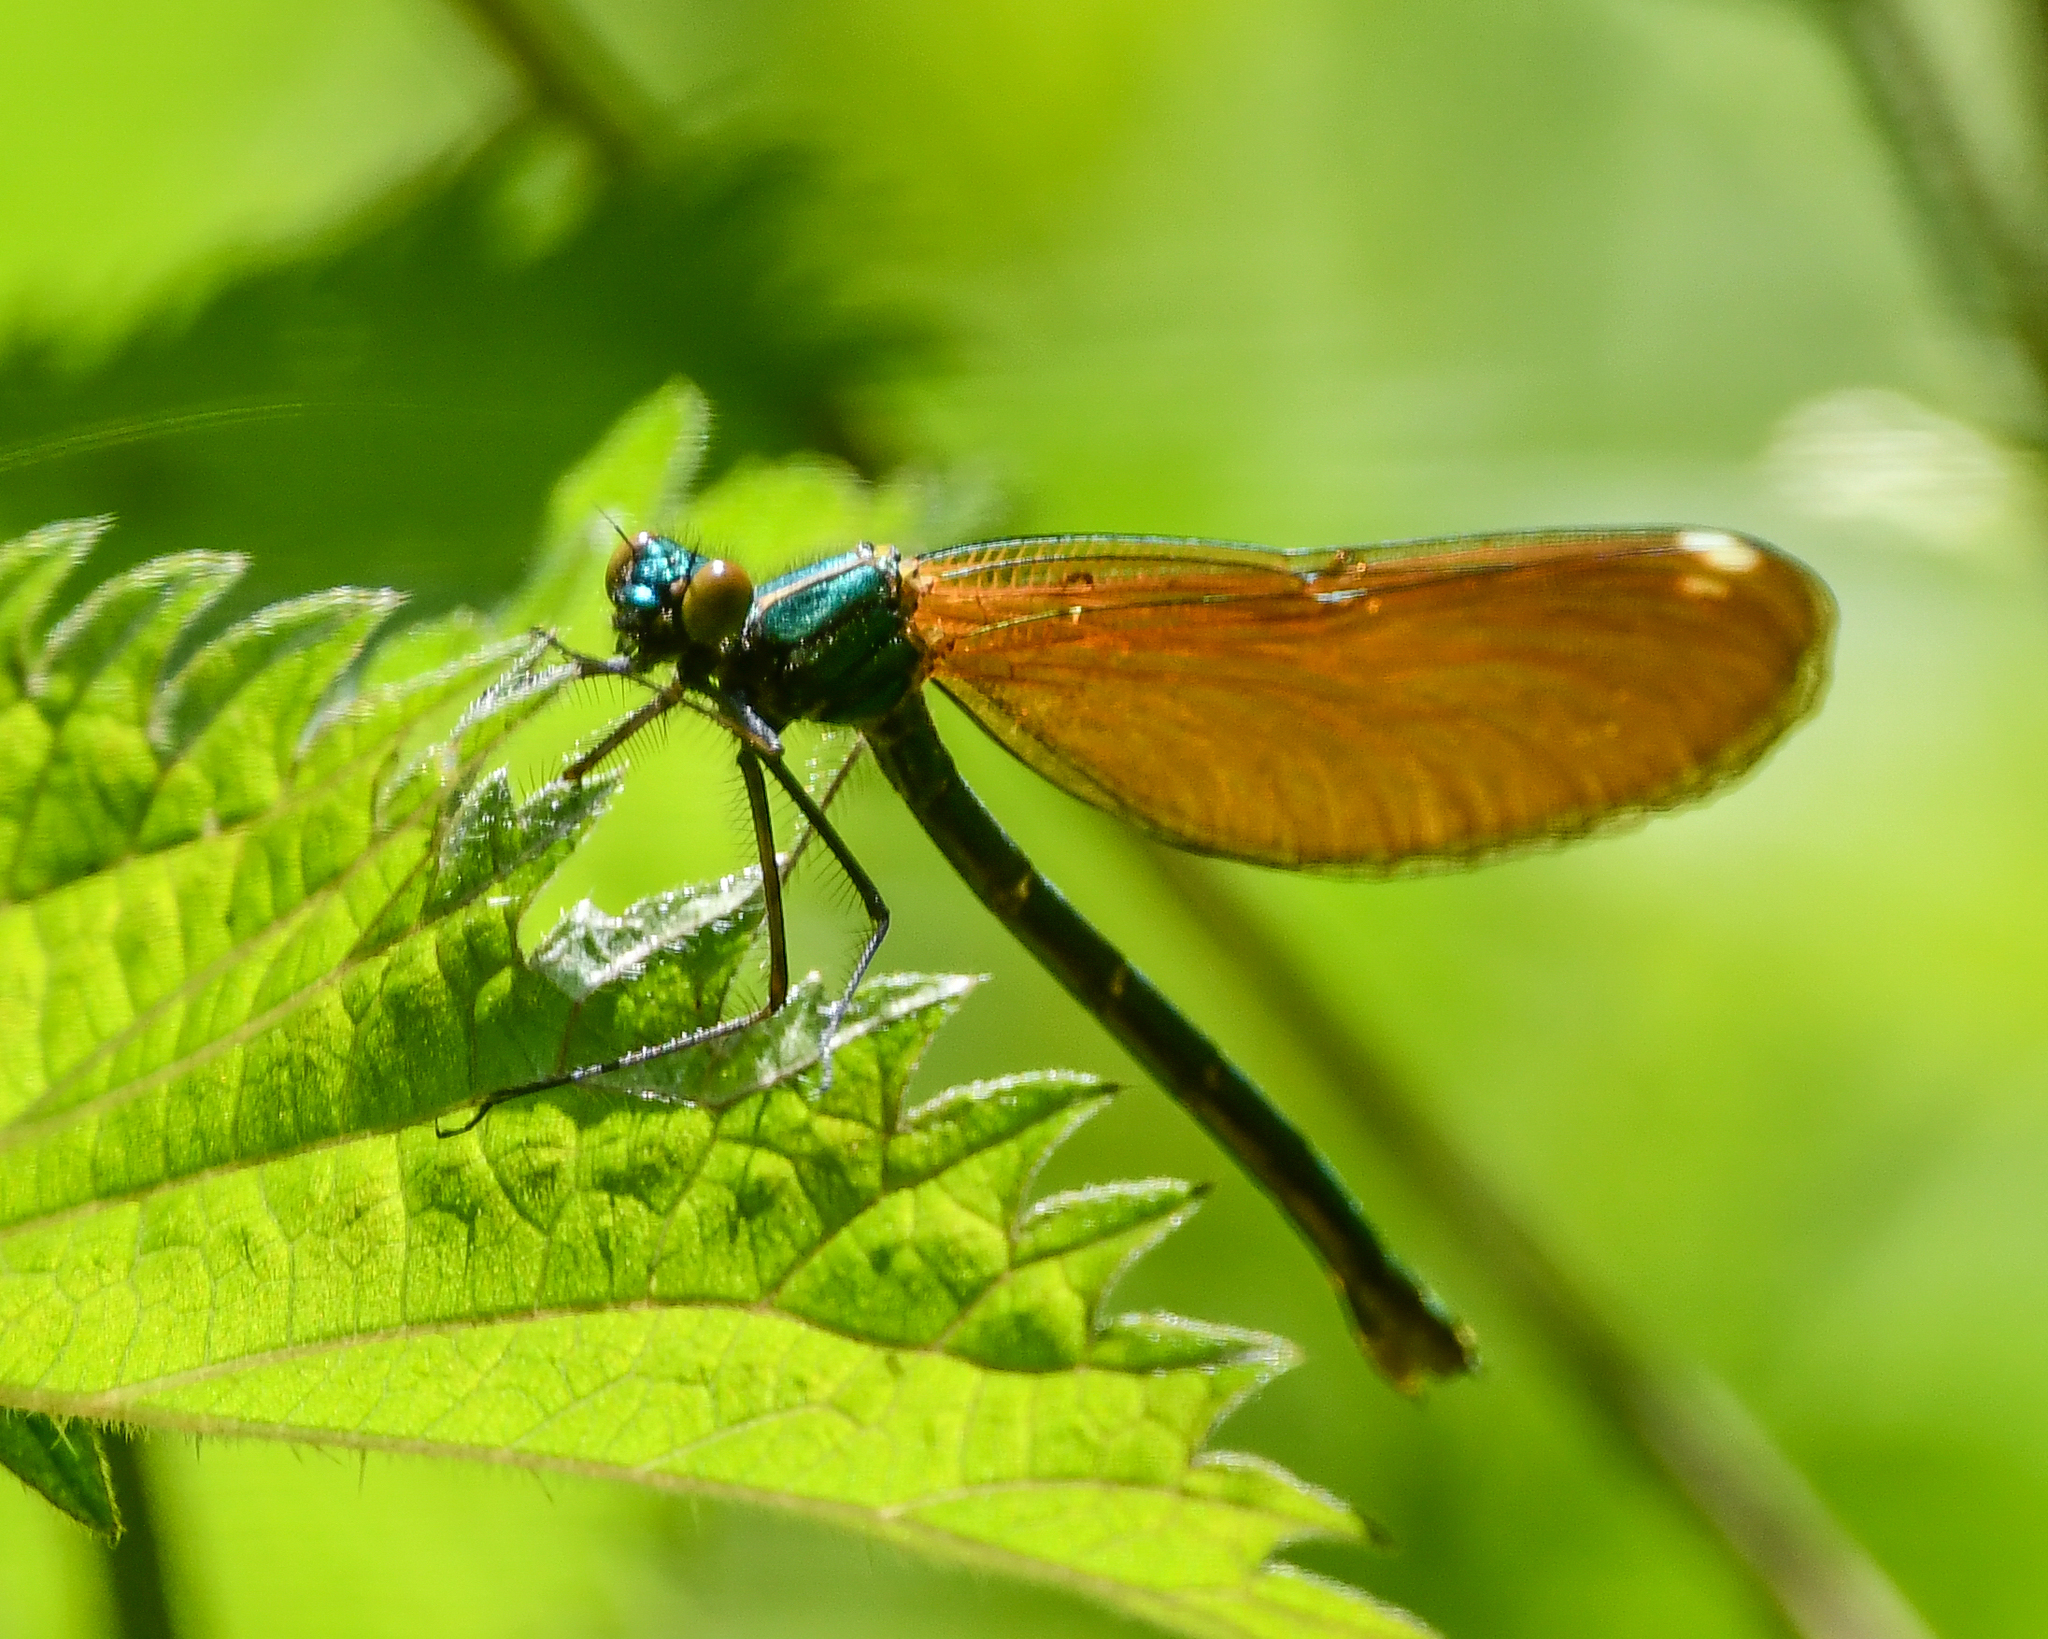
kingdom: Animalia
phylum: Arthropoda
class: Insecta
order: Odonata
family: Calopterygidae
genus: Calopteryx
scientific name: Calopteryx virgo
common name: Beautiful demoiselle
